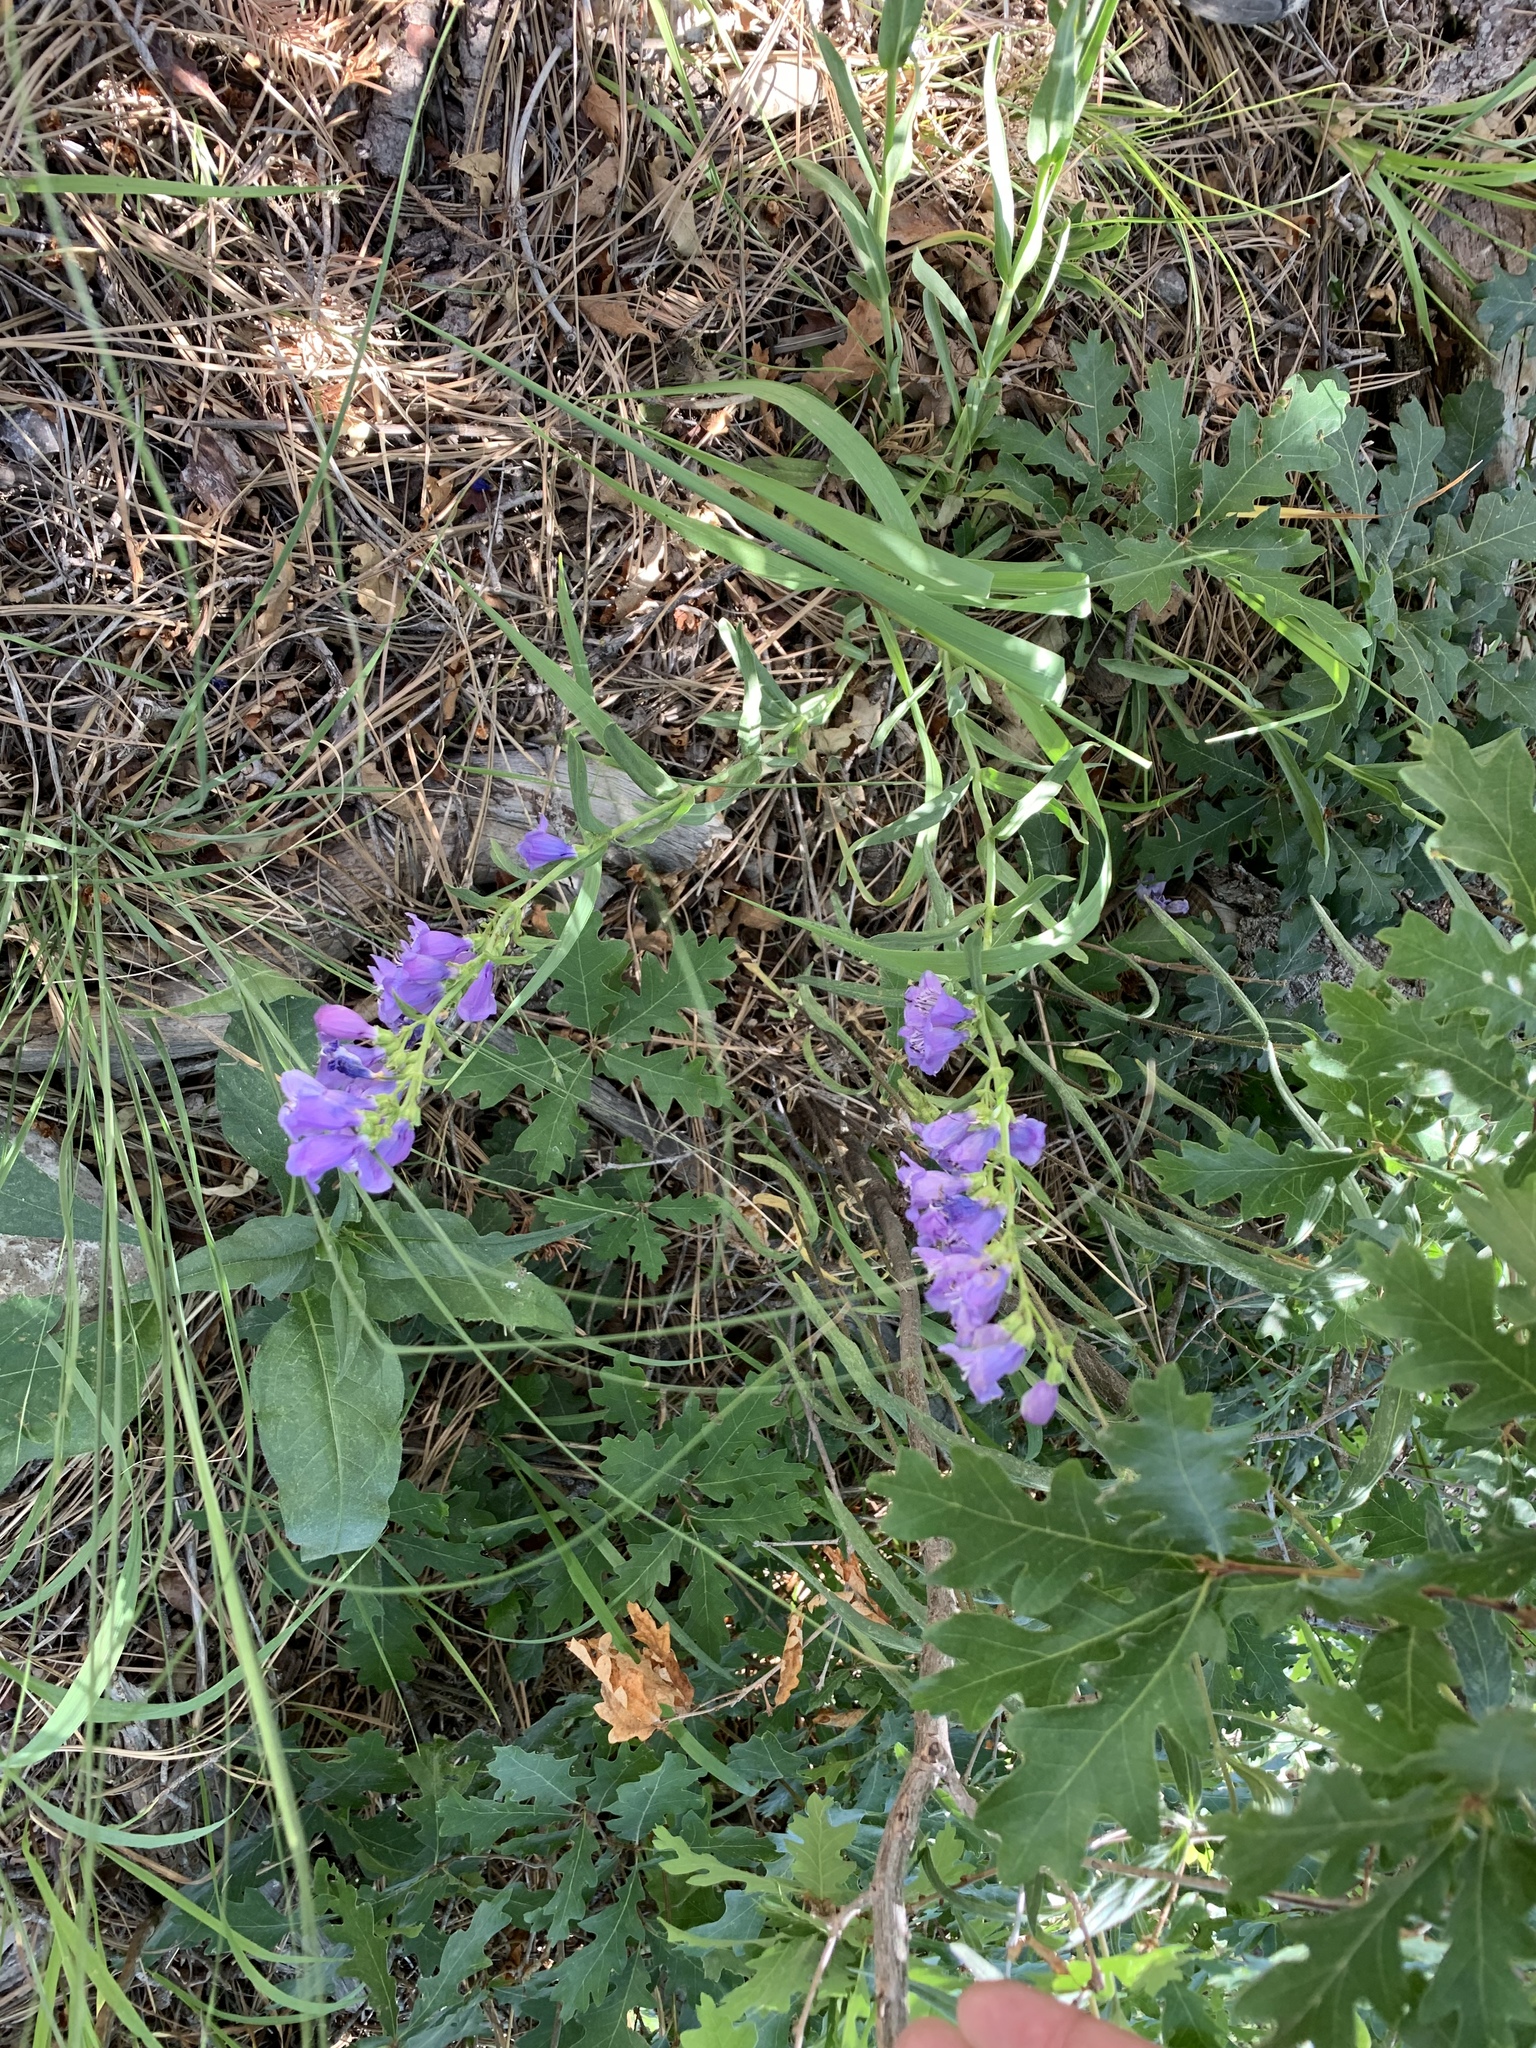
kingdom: Plantae
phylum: Tracheophyta
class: Magnoliopsida
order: Lamiales
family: Plantaginaceae
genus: Penstemon
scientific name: Penstemon neomexicanus
